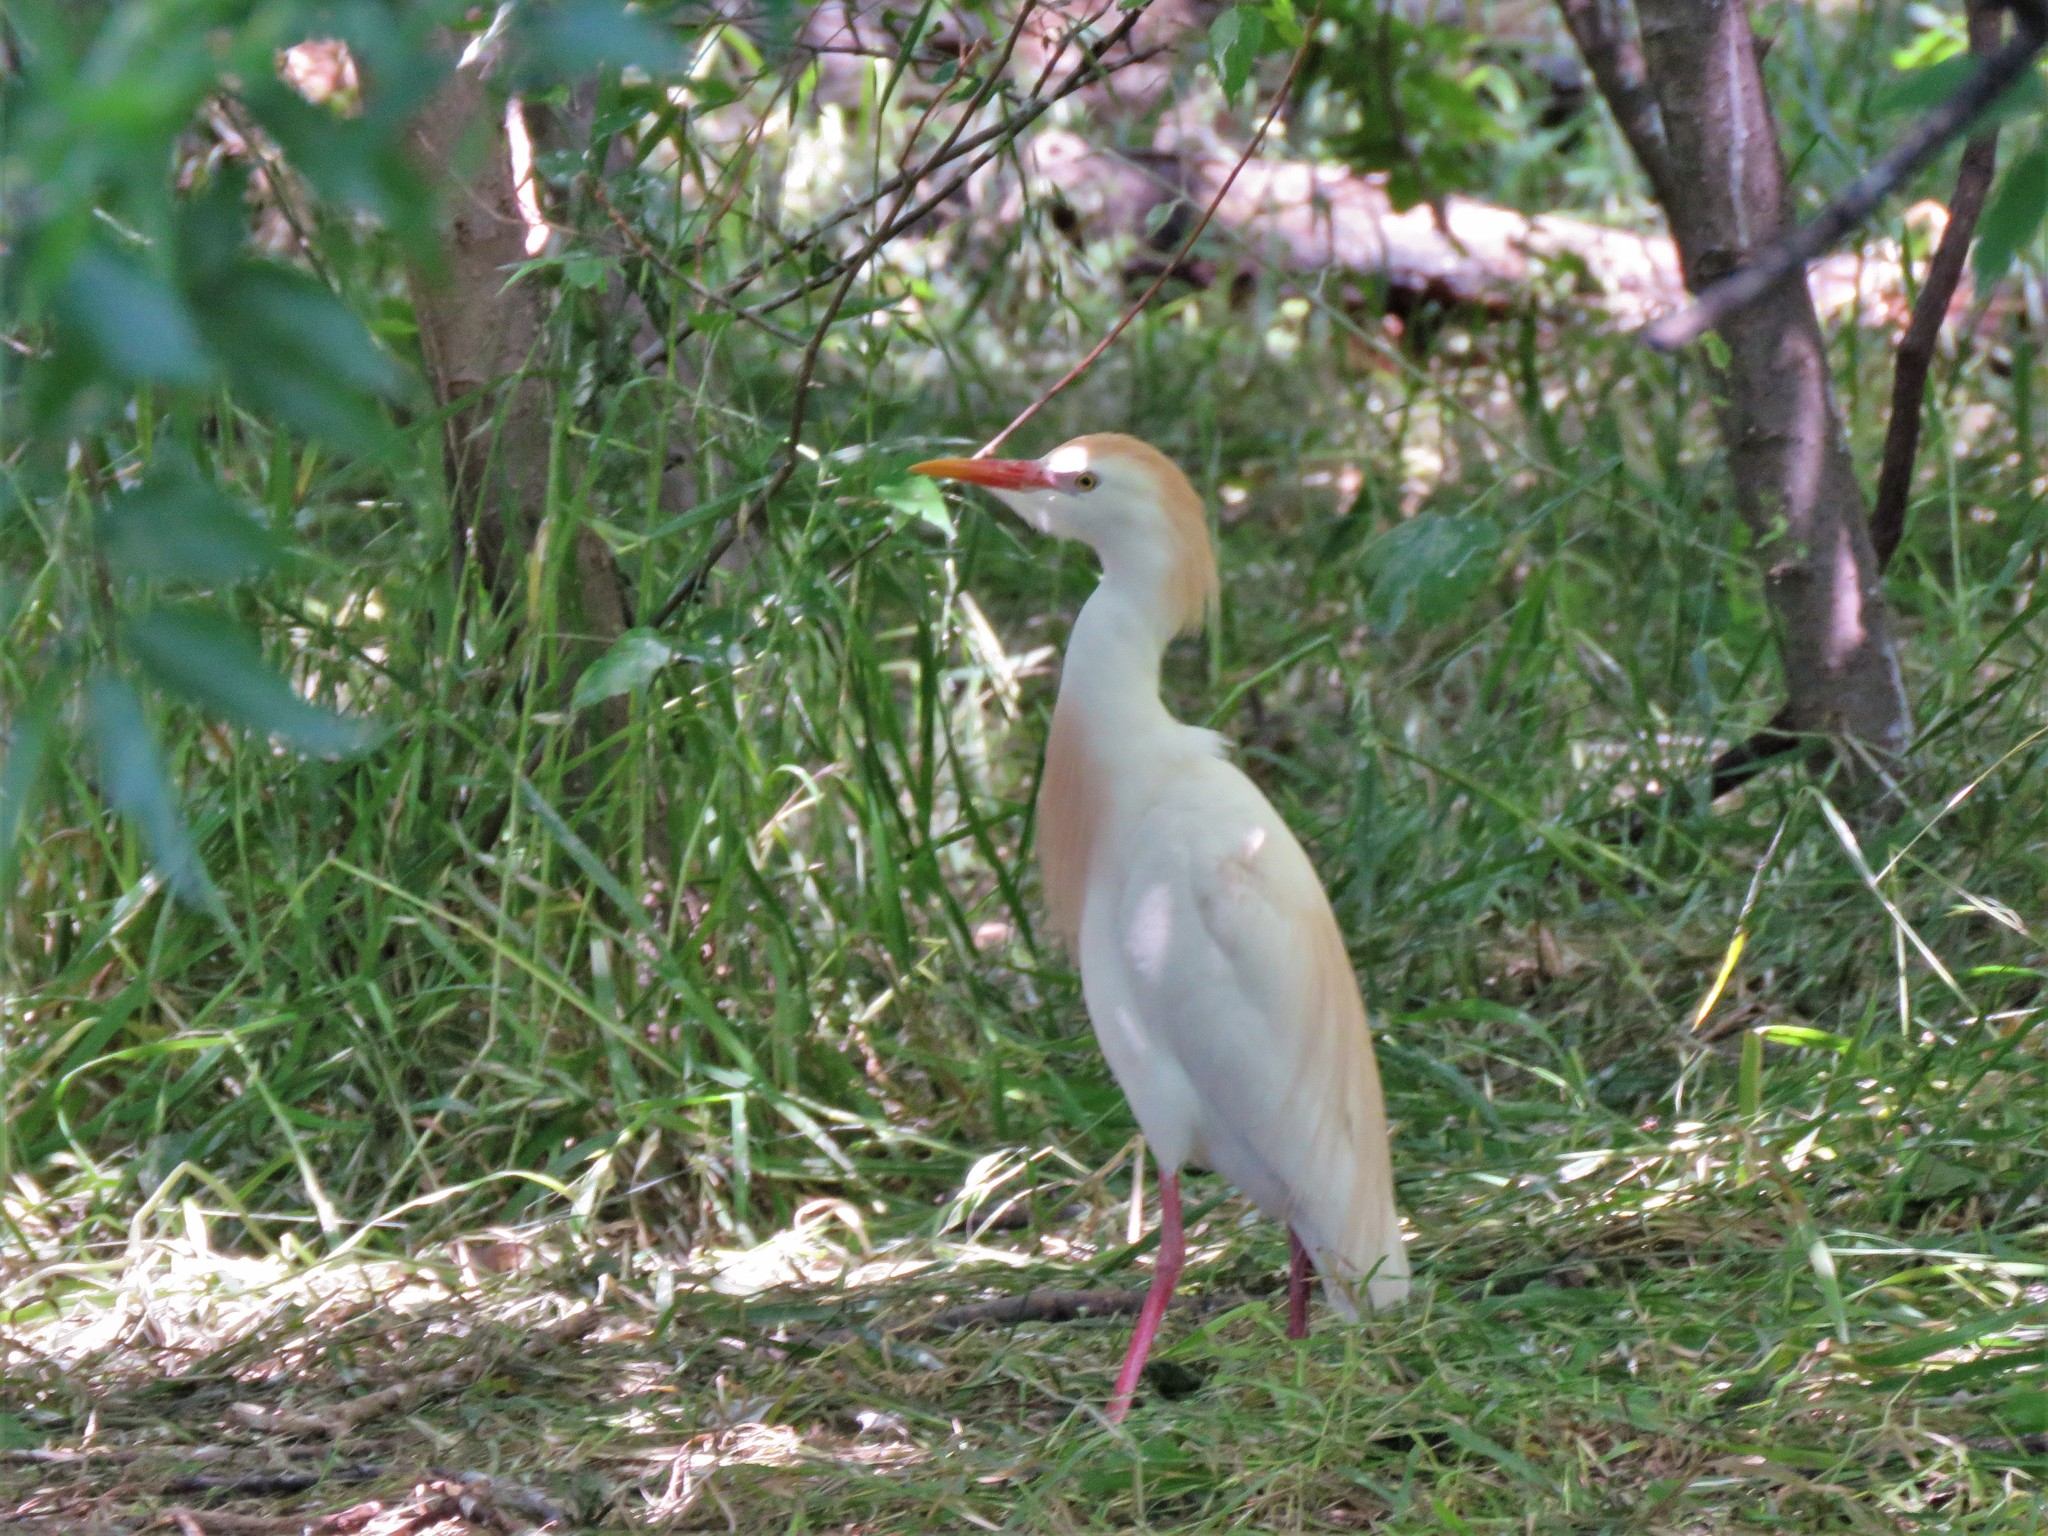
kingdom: Animalia
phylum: Chordata
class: Aves
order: Pelecaniformes
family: Ardeidae
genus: Bubulcus
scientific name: Bubulcus ibis
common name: Cattle egret
